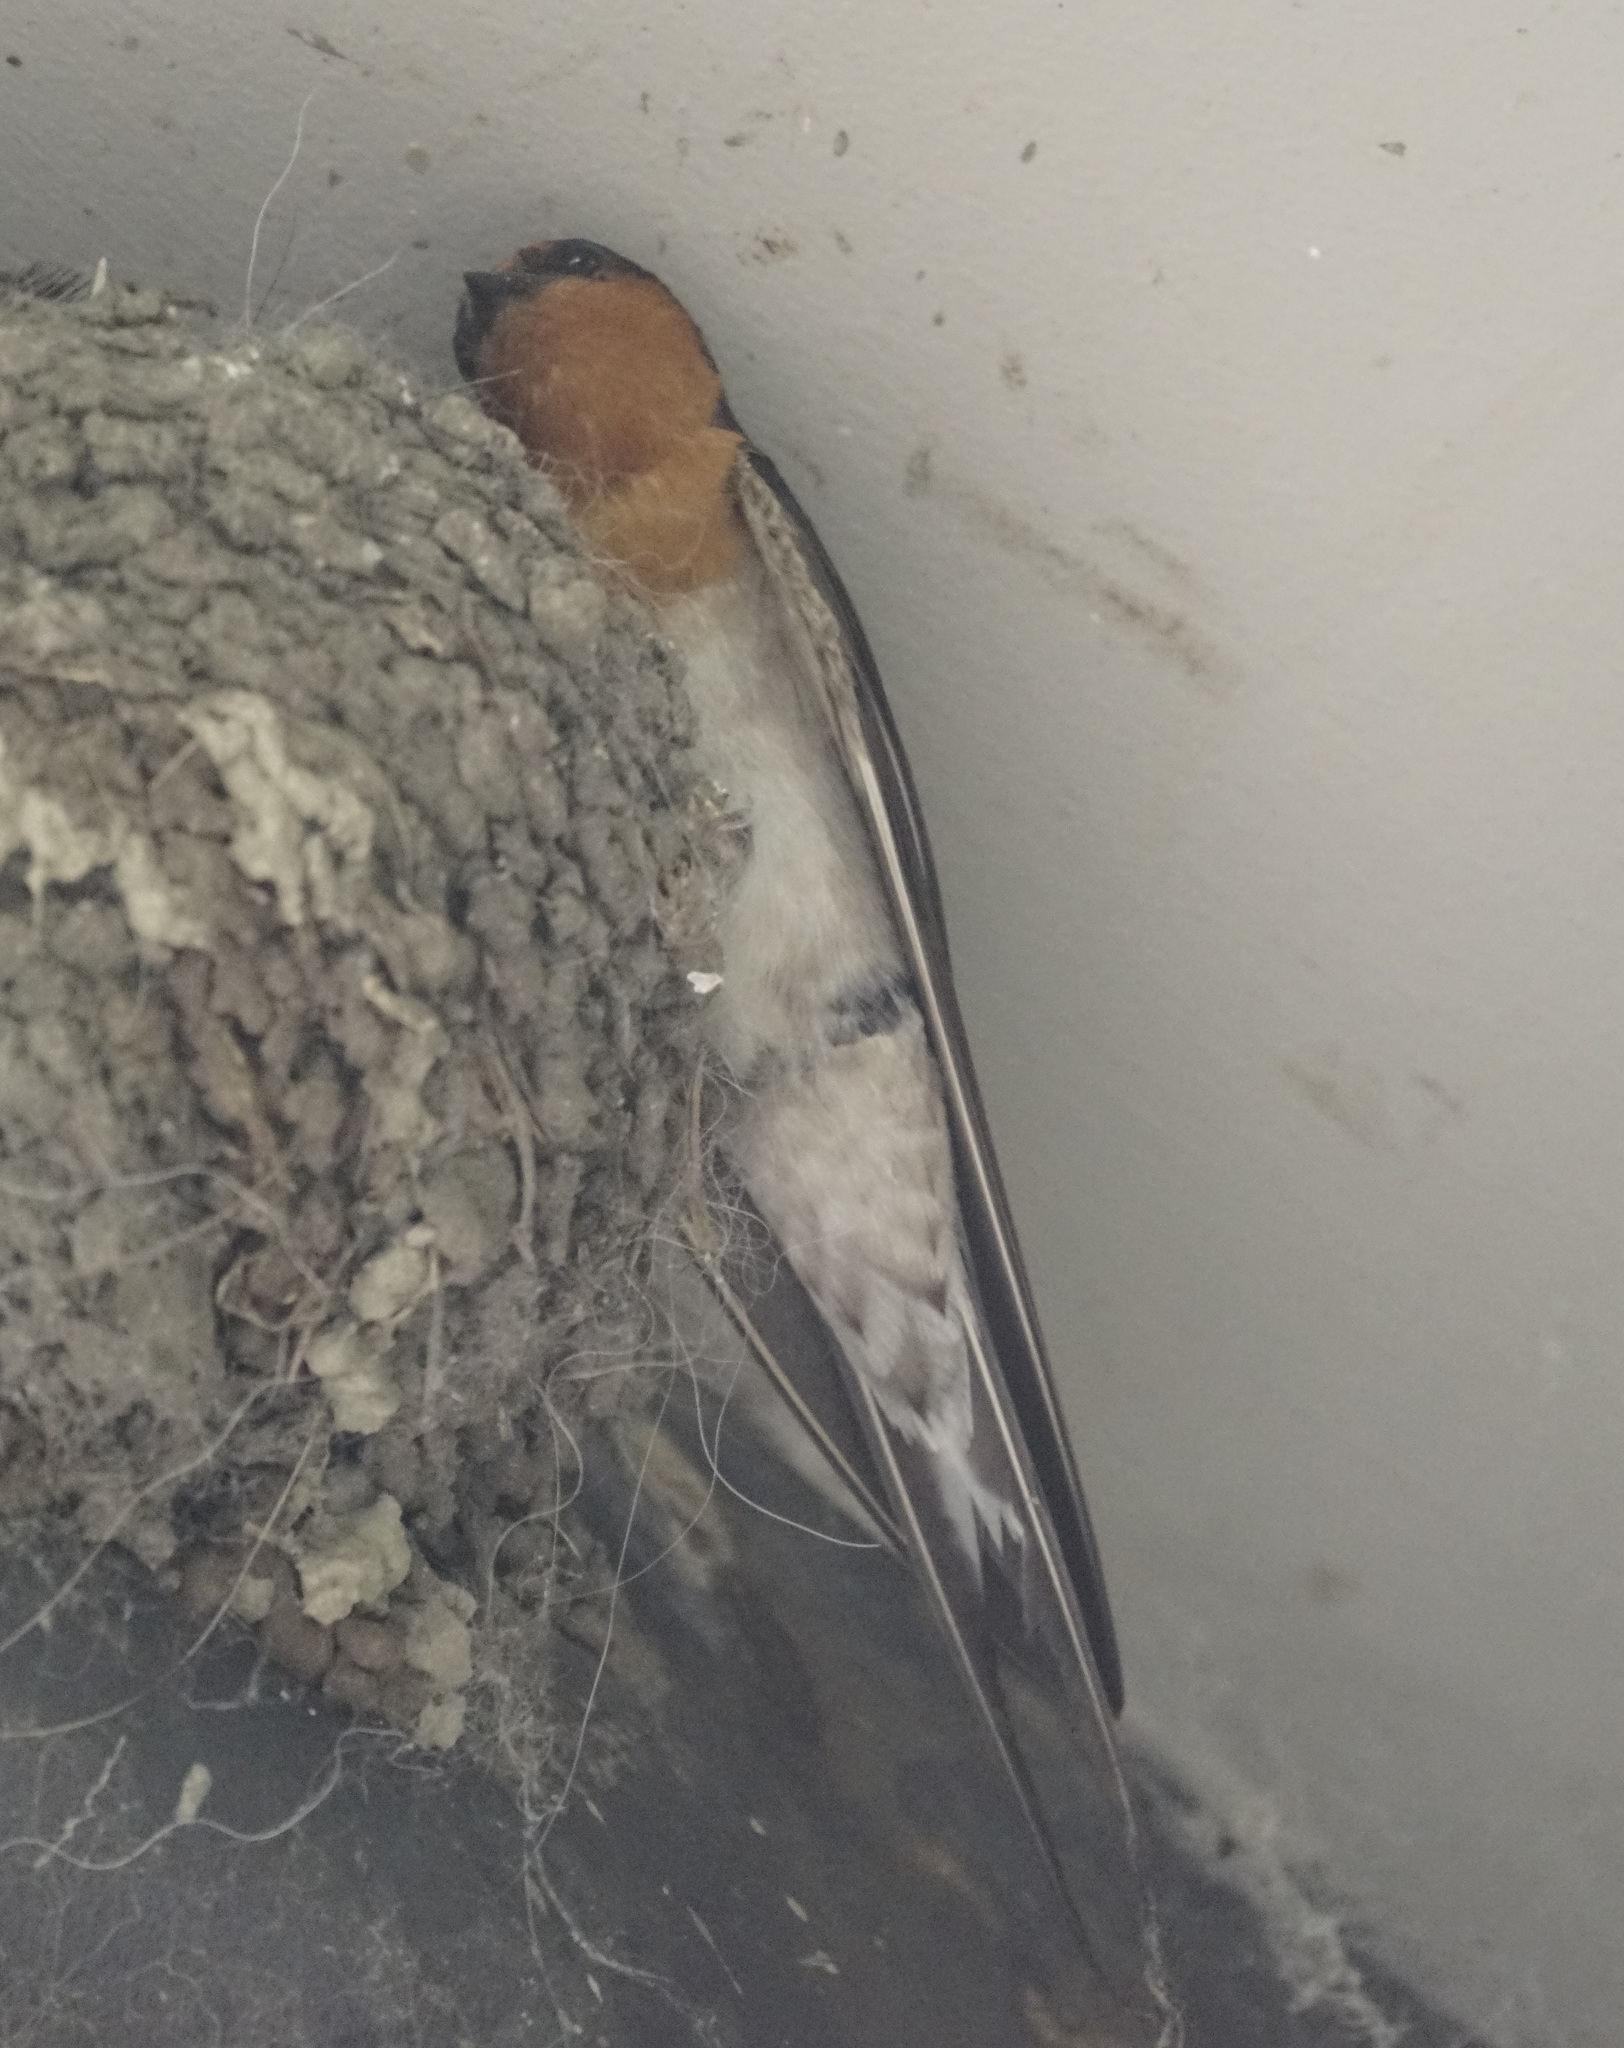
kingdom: Animalia
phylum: Chordata
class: Aves
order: Passeriformes
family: Hirundinidae
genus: Hirundo
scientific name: Hirundo neoxena
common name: Welcome swallow
